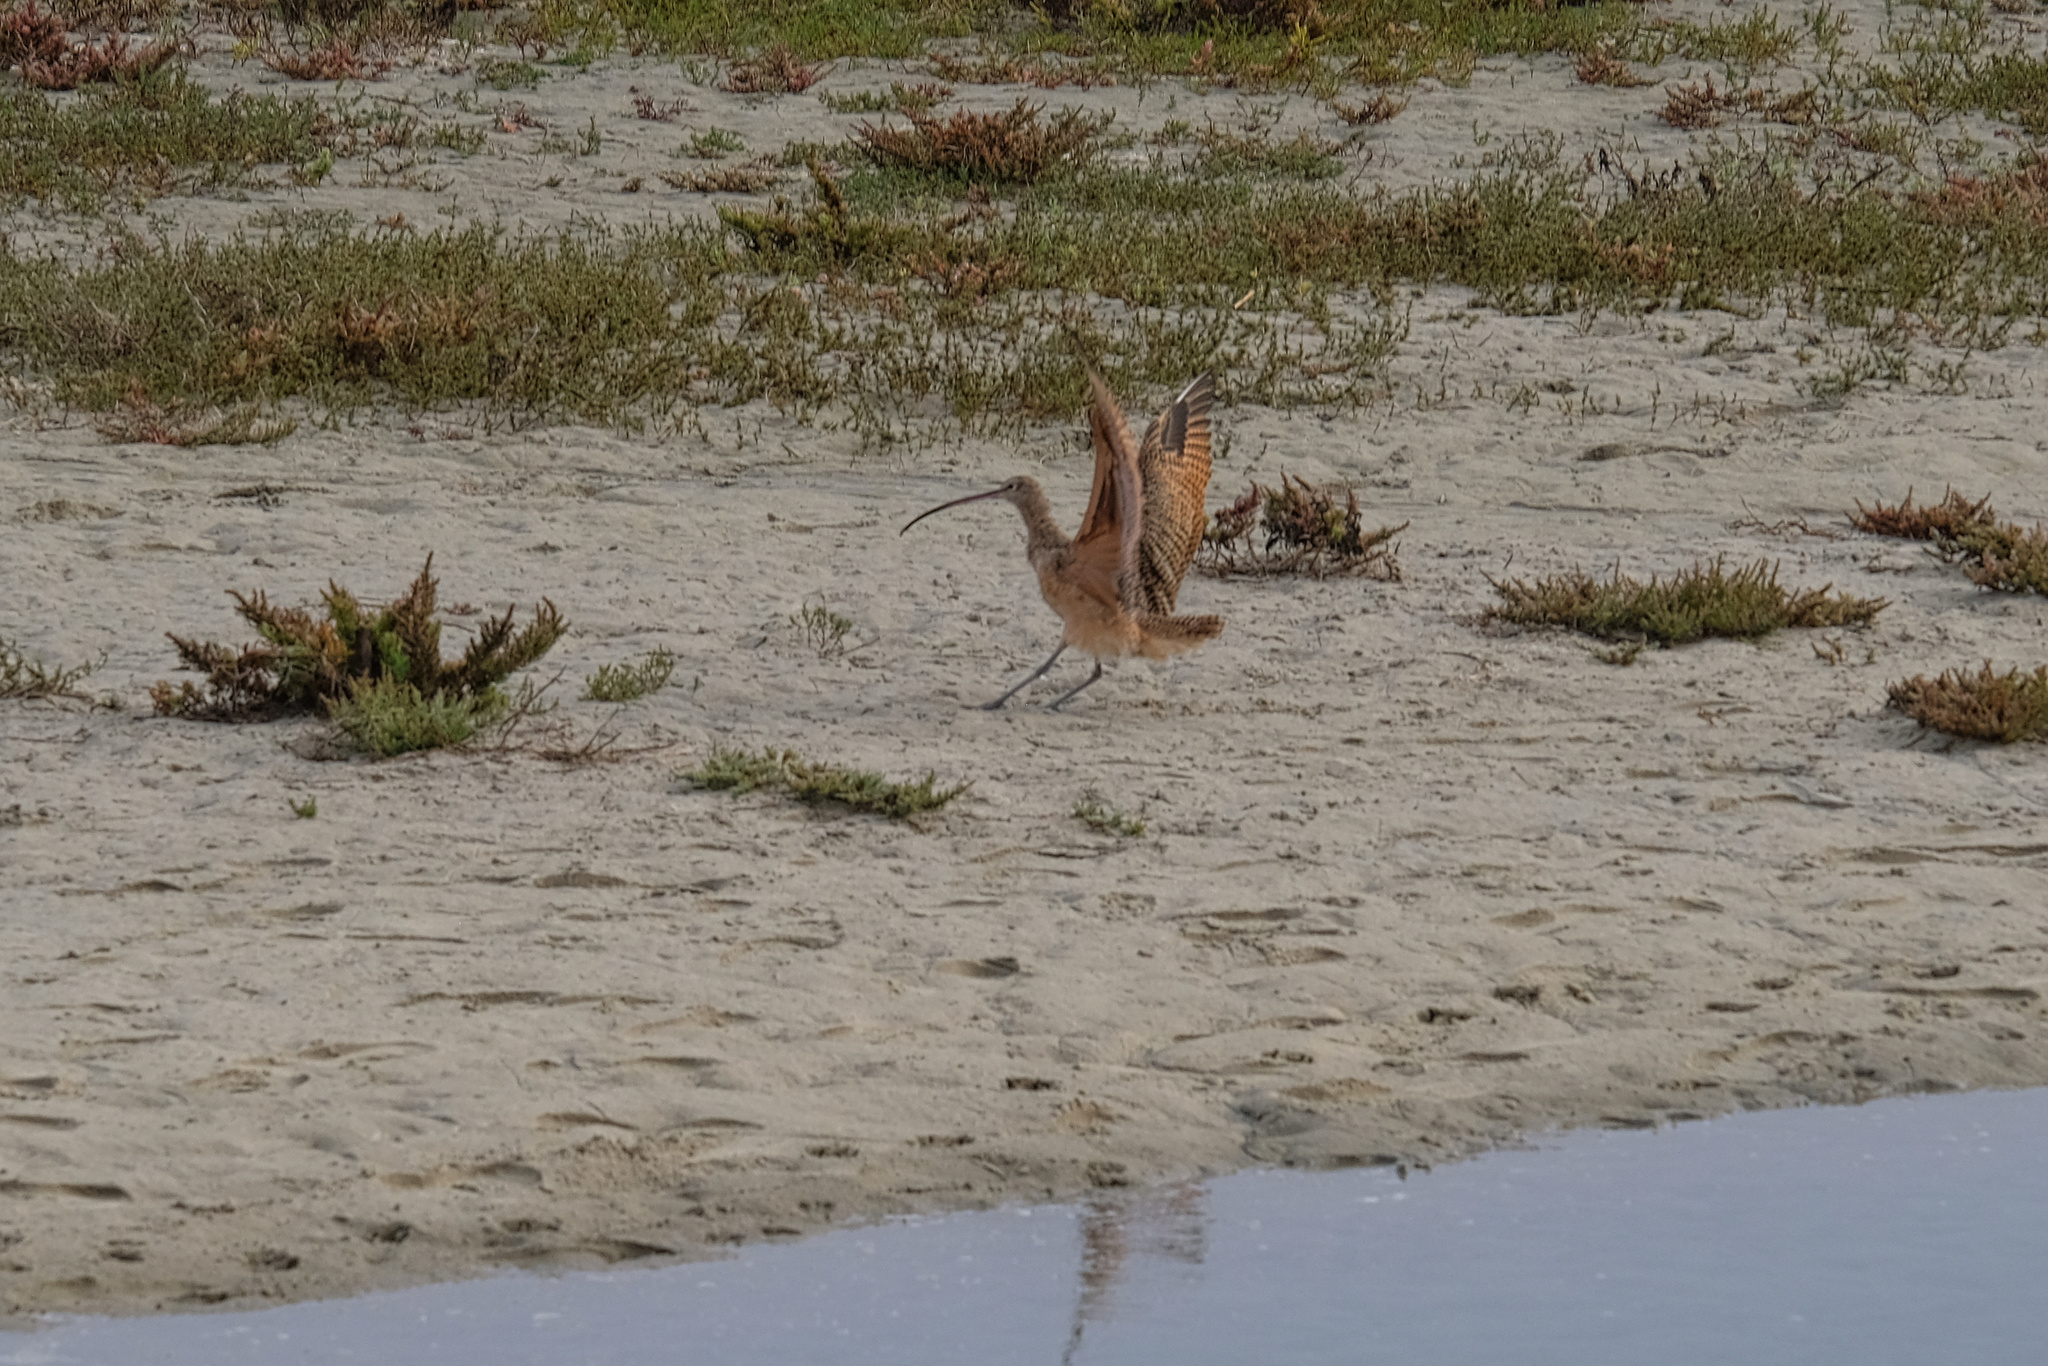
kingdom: Animalia
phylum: Chordata
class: Aves
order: Charadriiformes
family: Scolopacidae
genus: Numenius
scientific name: Numenius americanus
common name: Long-billed curlew
